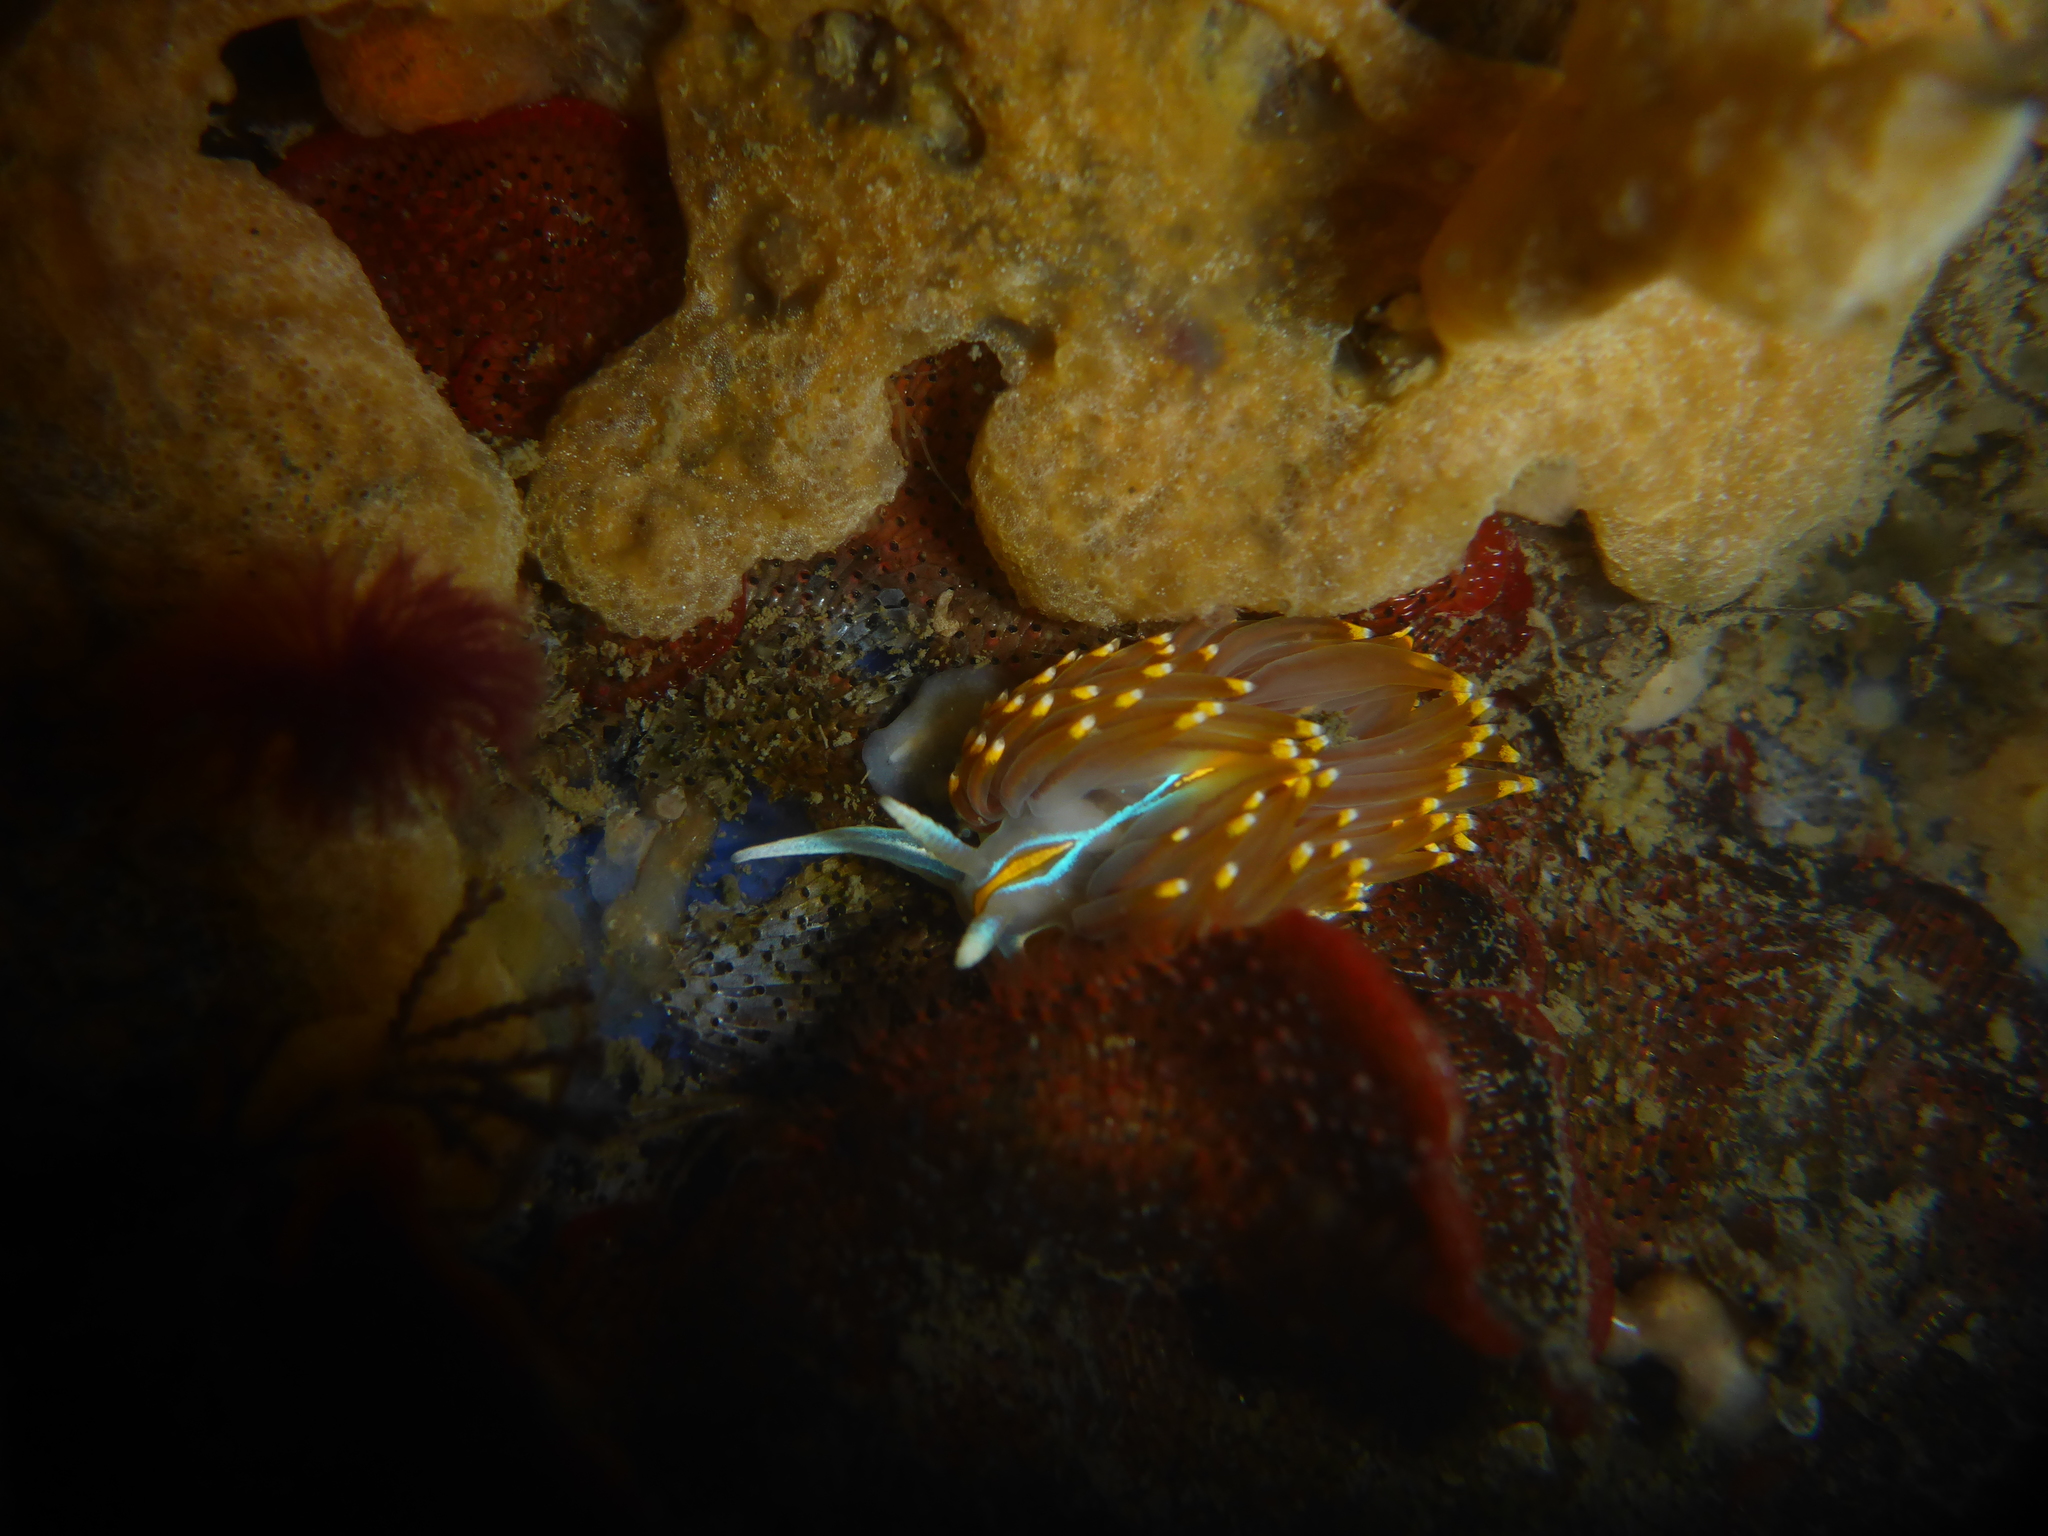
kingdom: Animalia
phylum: Mollusca
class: Gastropoda
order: Nudibranchia
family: Myrrhinidae
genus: Hermissenda
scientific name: Hermissenda opalescens
